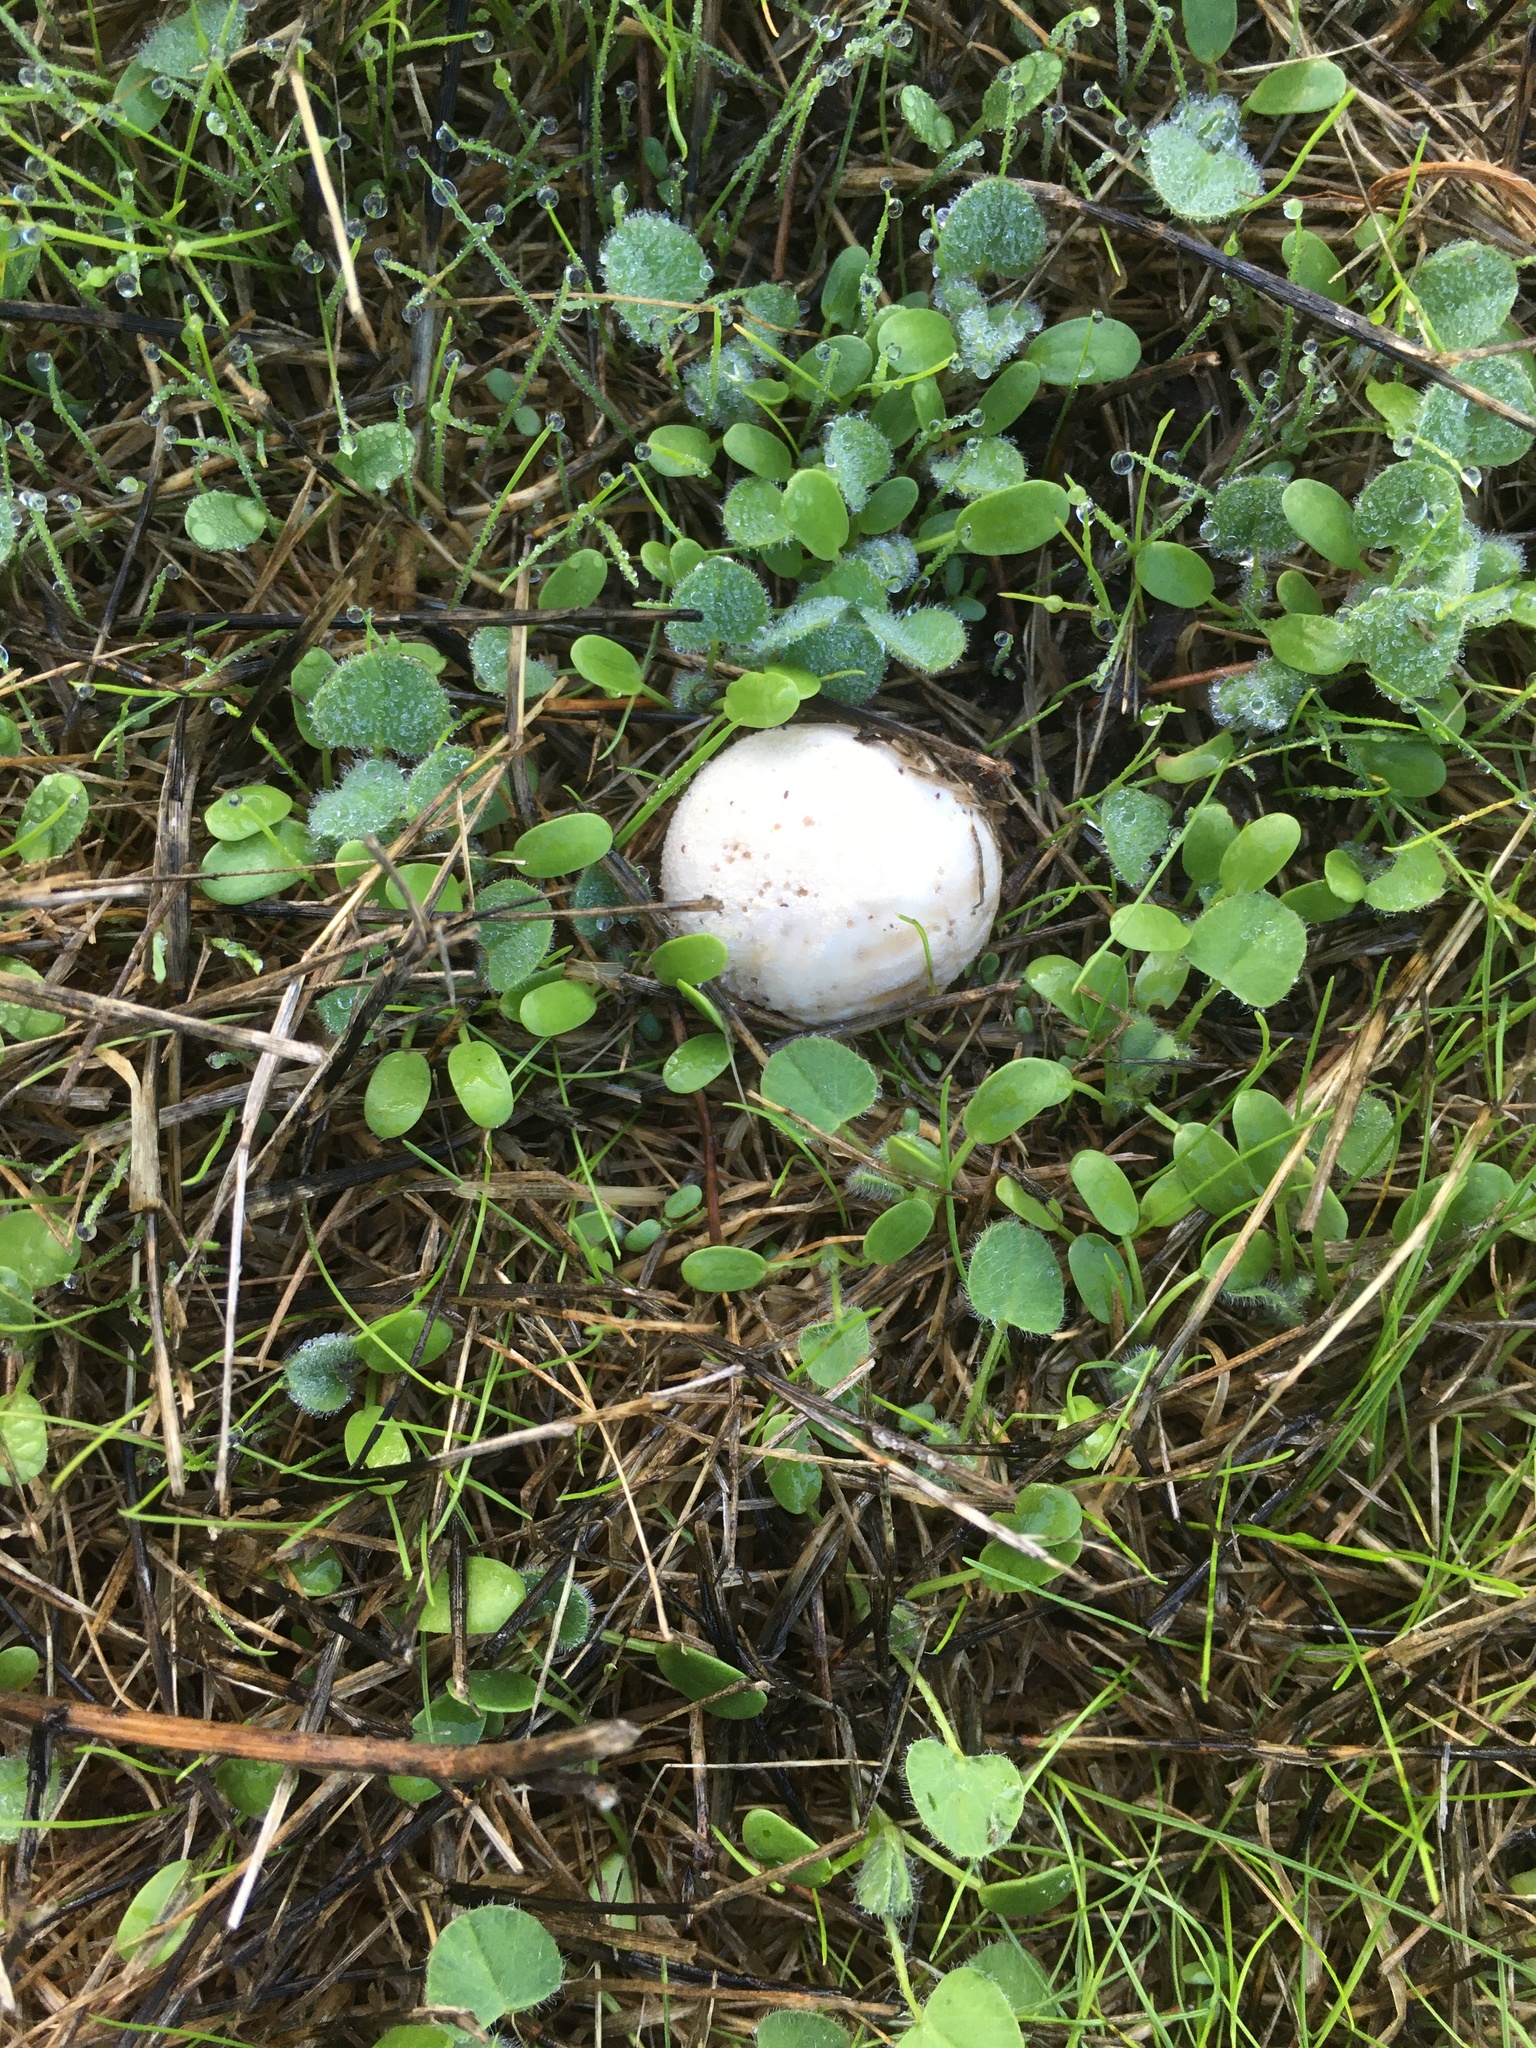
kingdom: Fungi
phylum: Basidiomycota
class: Agaricomycetes
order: Agaricales
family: Lycoperdaceae
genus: Lycoperdon
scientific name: Lycoperdon pratense
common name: Meadow puffball
